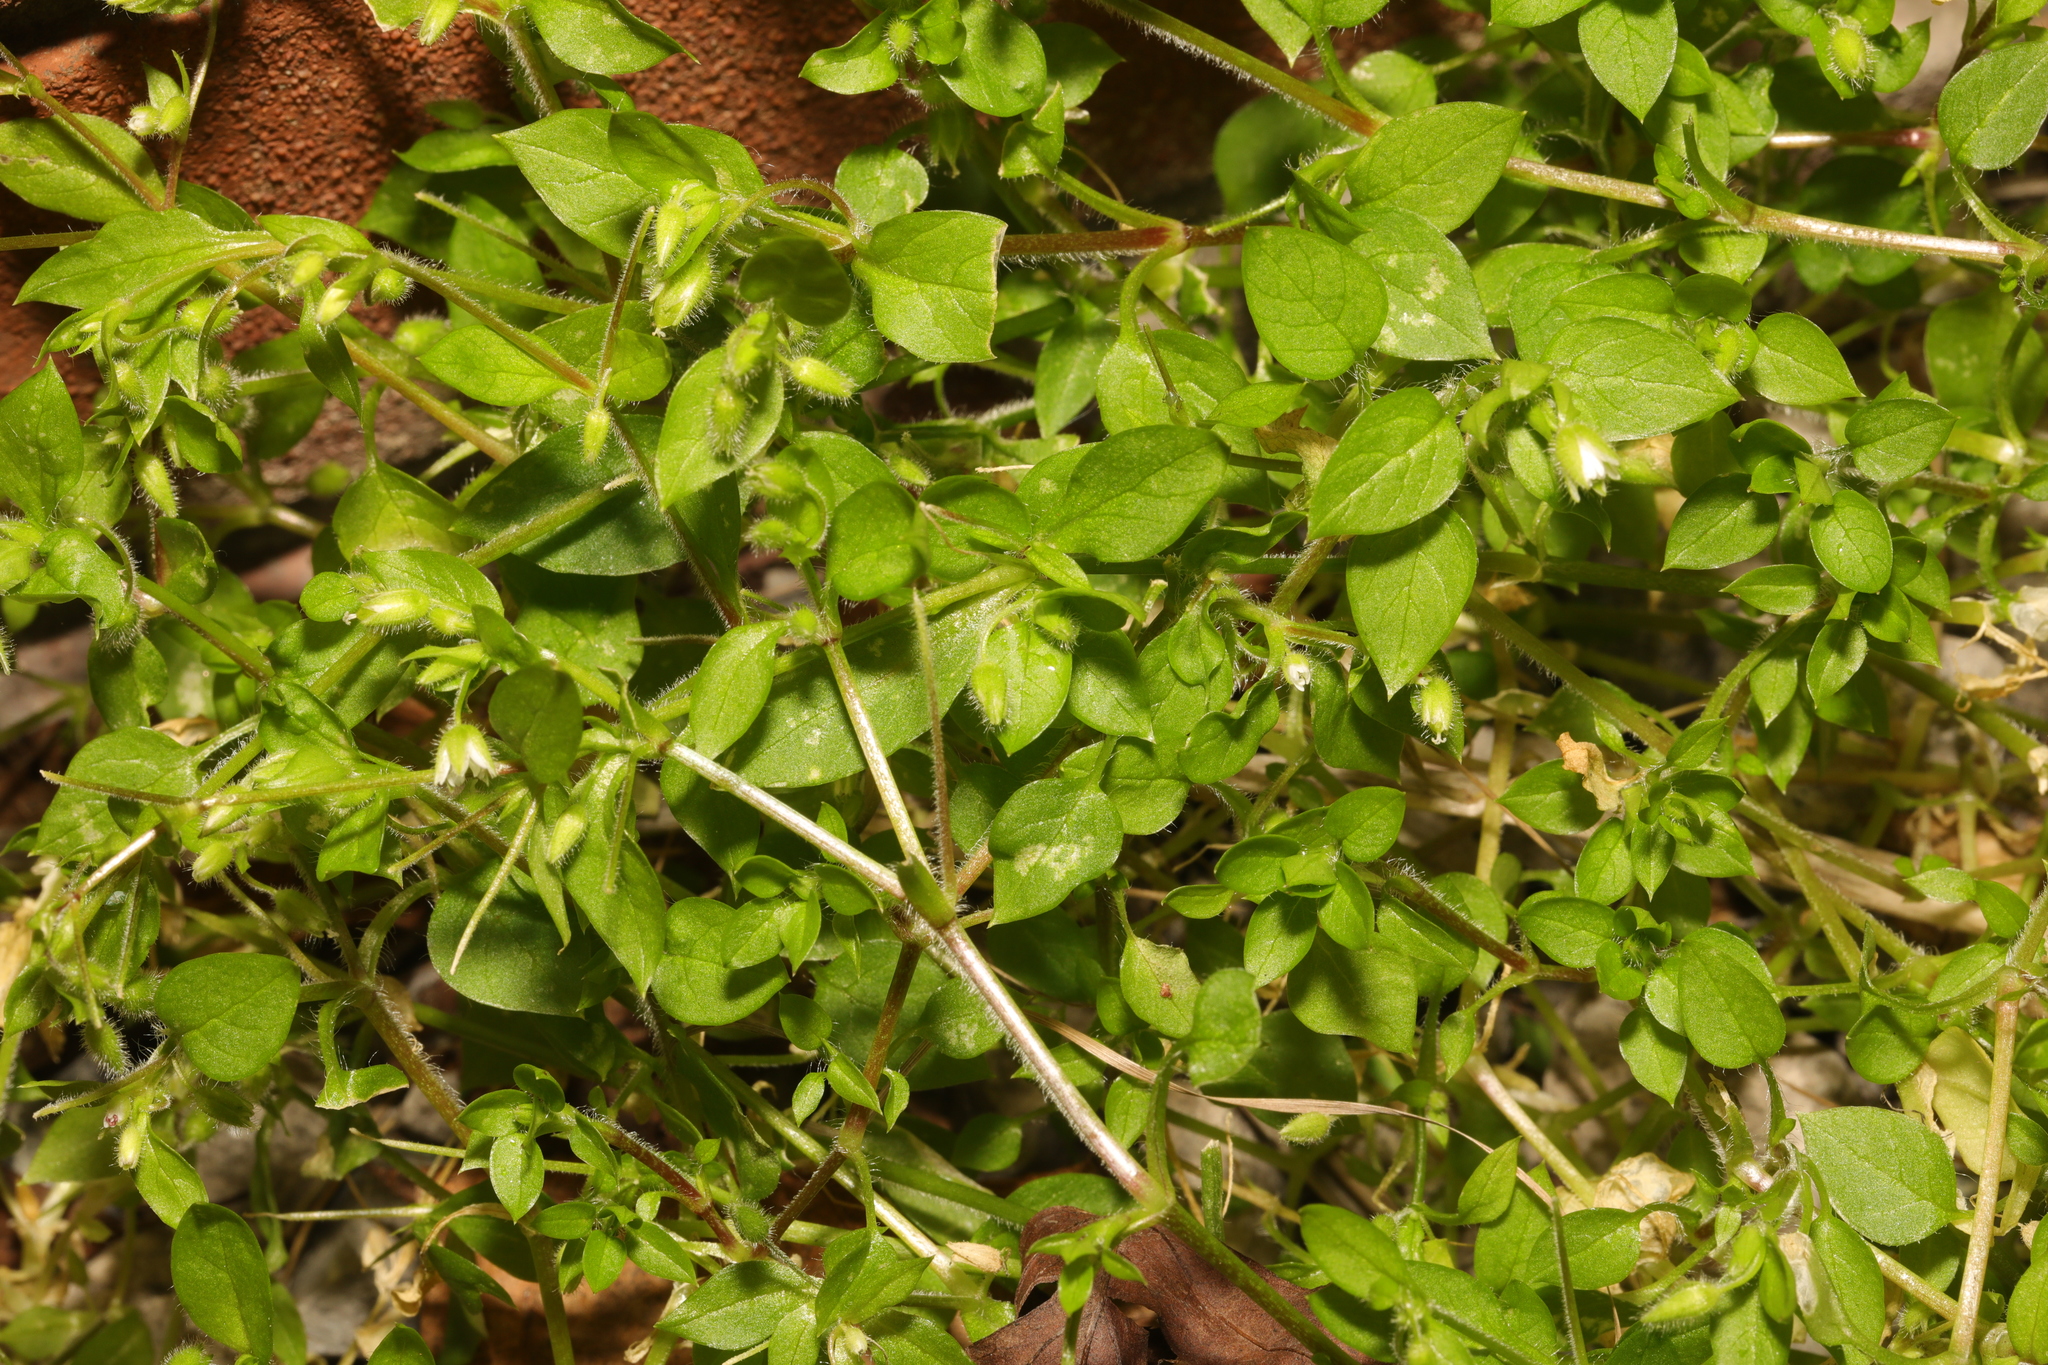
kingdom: Plantae
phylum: Tracheophyta
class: Magnoliopsida
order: Caryophyllales
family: Caryophyllaceae
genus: Stellaria
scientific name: Stellaria media
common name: Common chickweed
